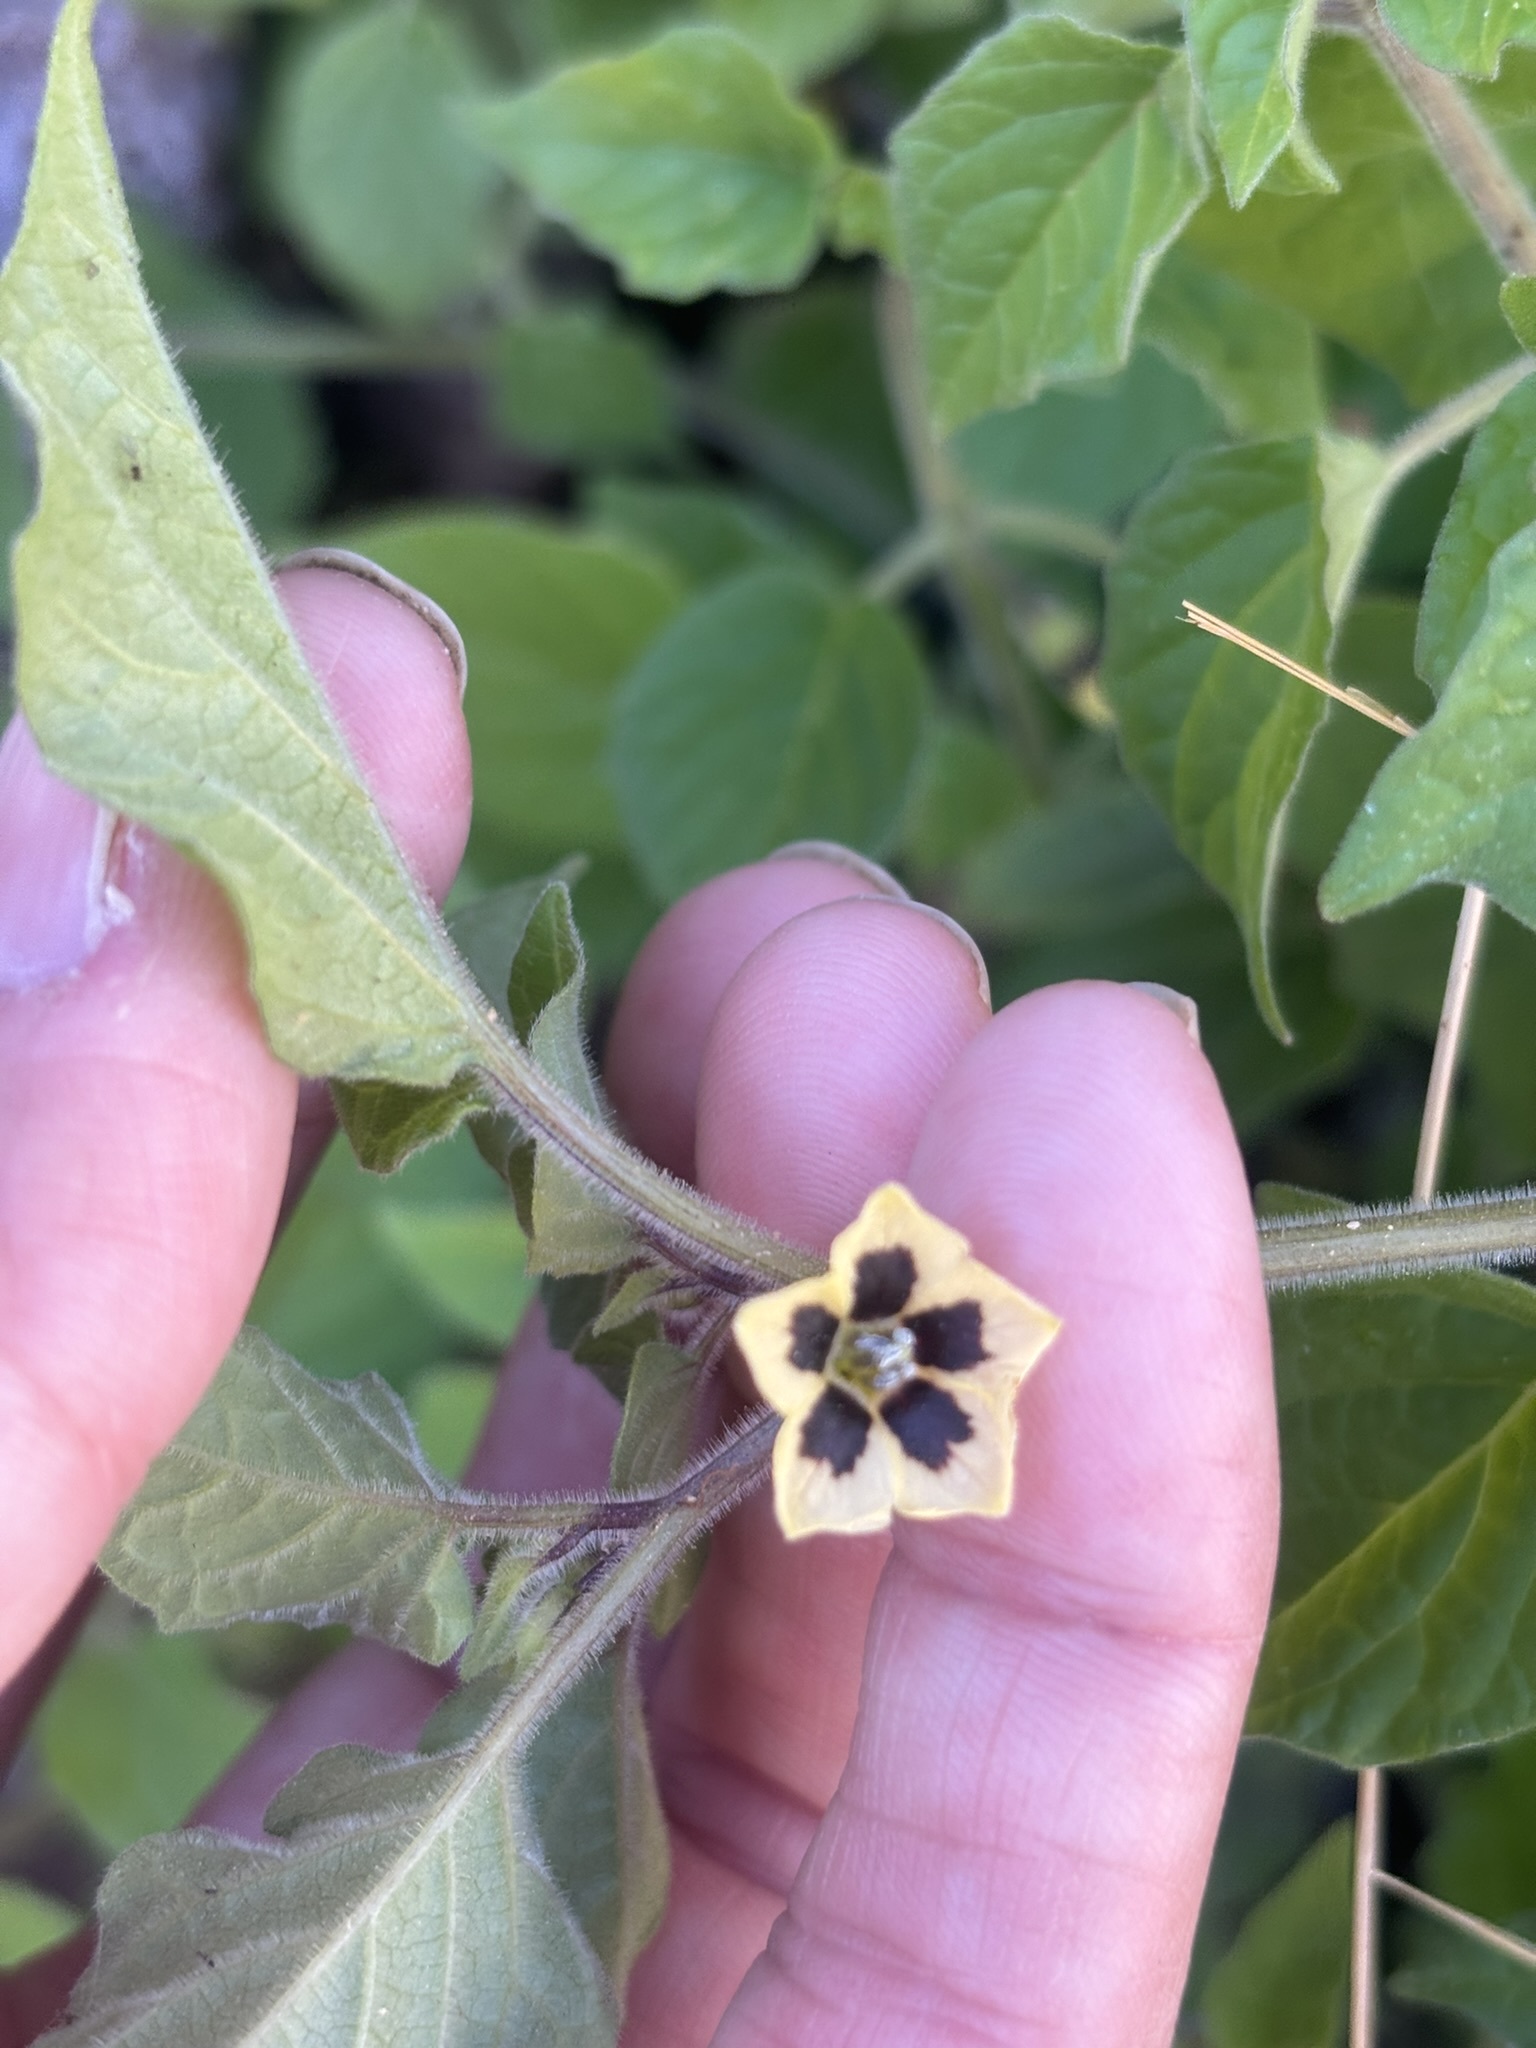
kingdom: Plantae
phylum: Tracheophyta
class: Magnoliopsida
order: Solanales
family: Solanaceae
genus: Physalis
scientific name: Physalis pubescens
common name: Downy ground-cherry
